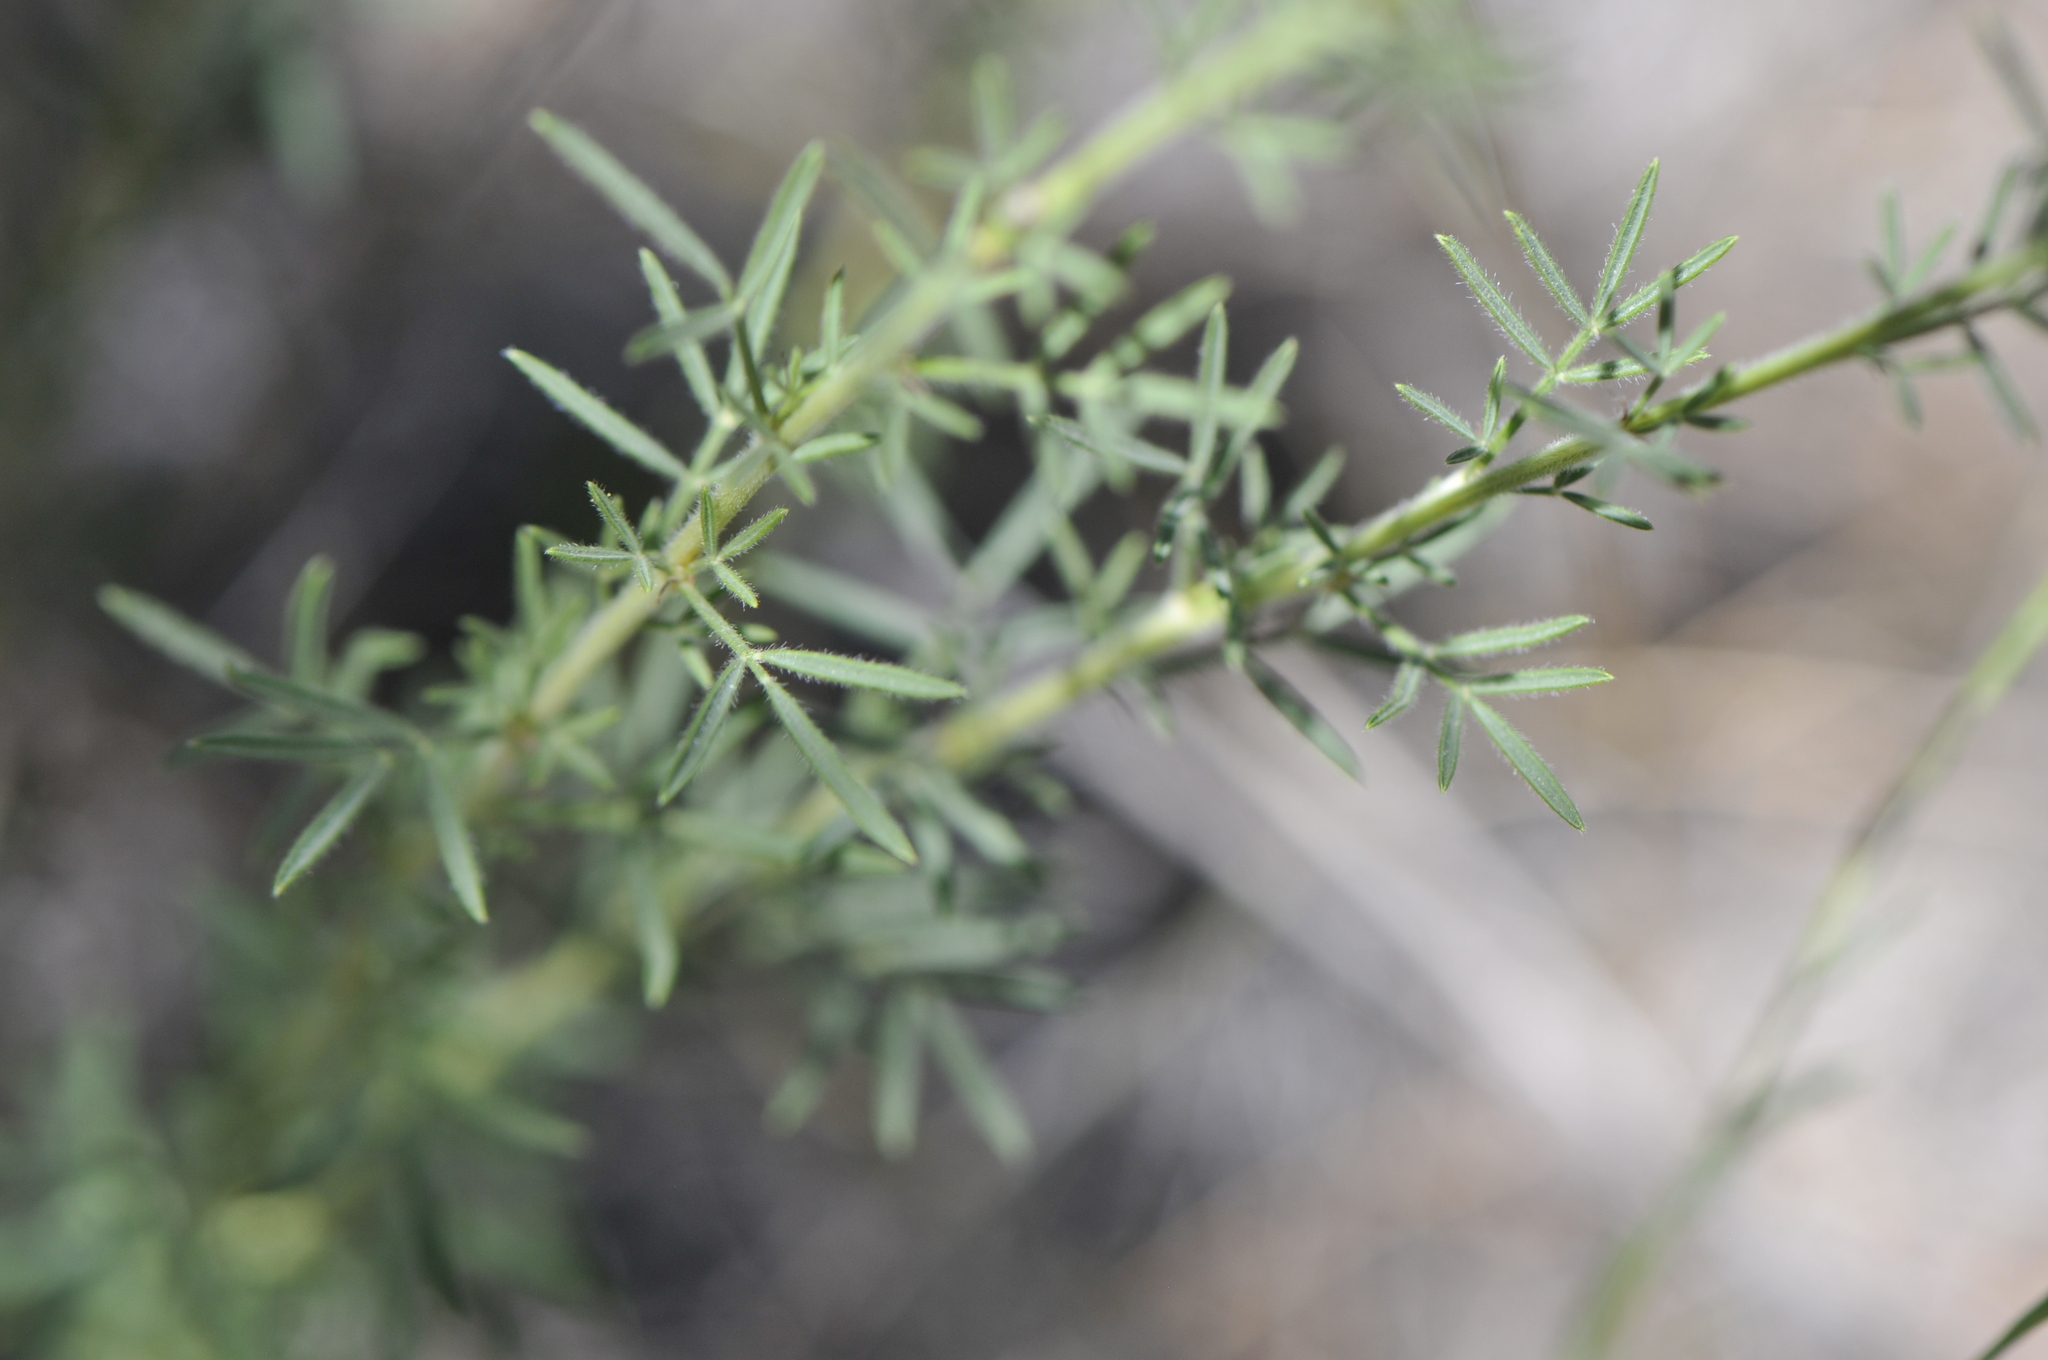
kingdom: Plantae
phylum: Tracheophyta
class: Magnoliopsida
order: Fabales
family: Fabaceae
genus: Dalea
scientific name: Dalea purpurea
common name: Purple prairie-clover
